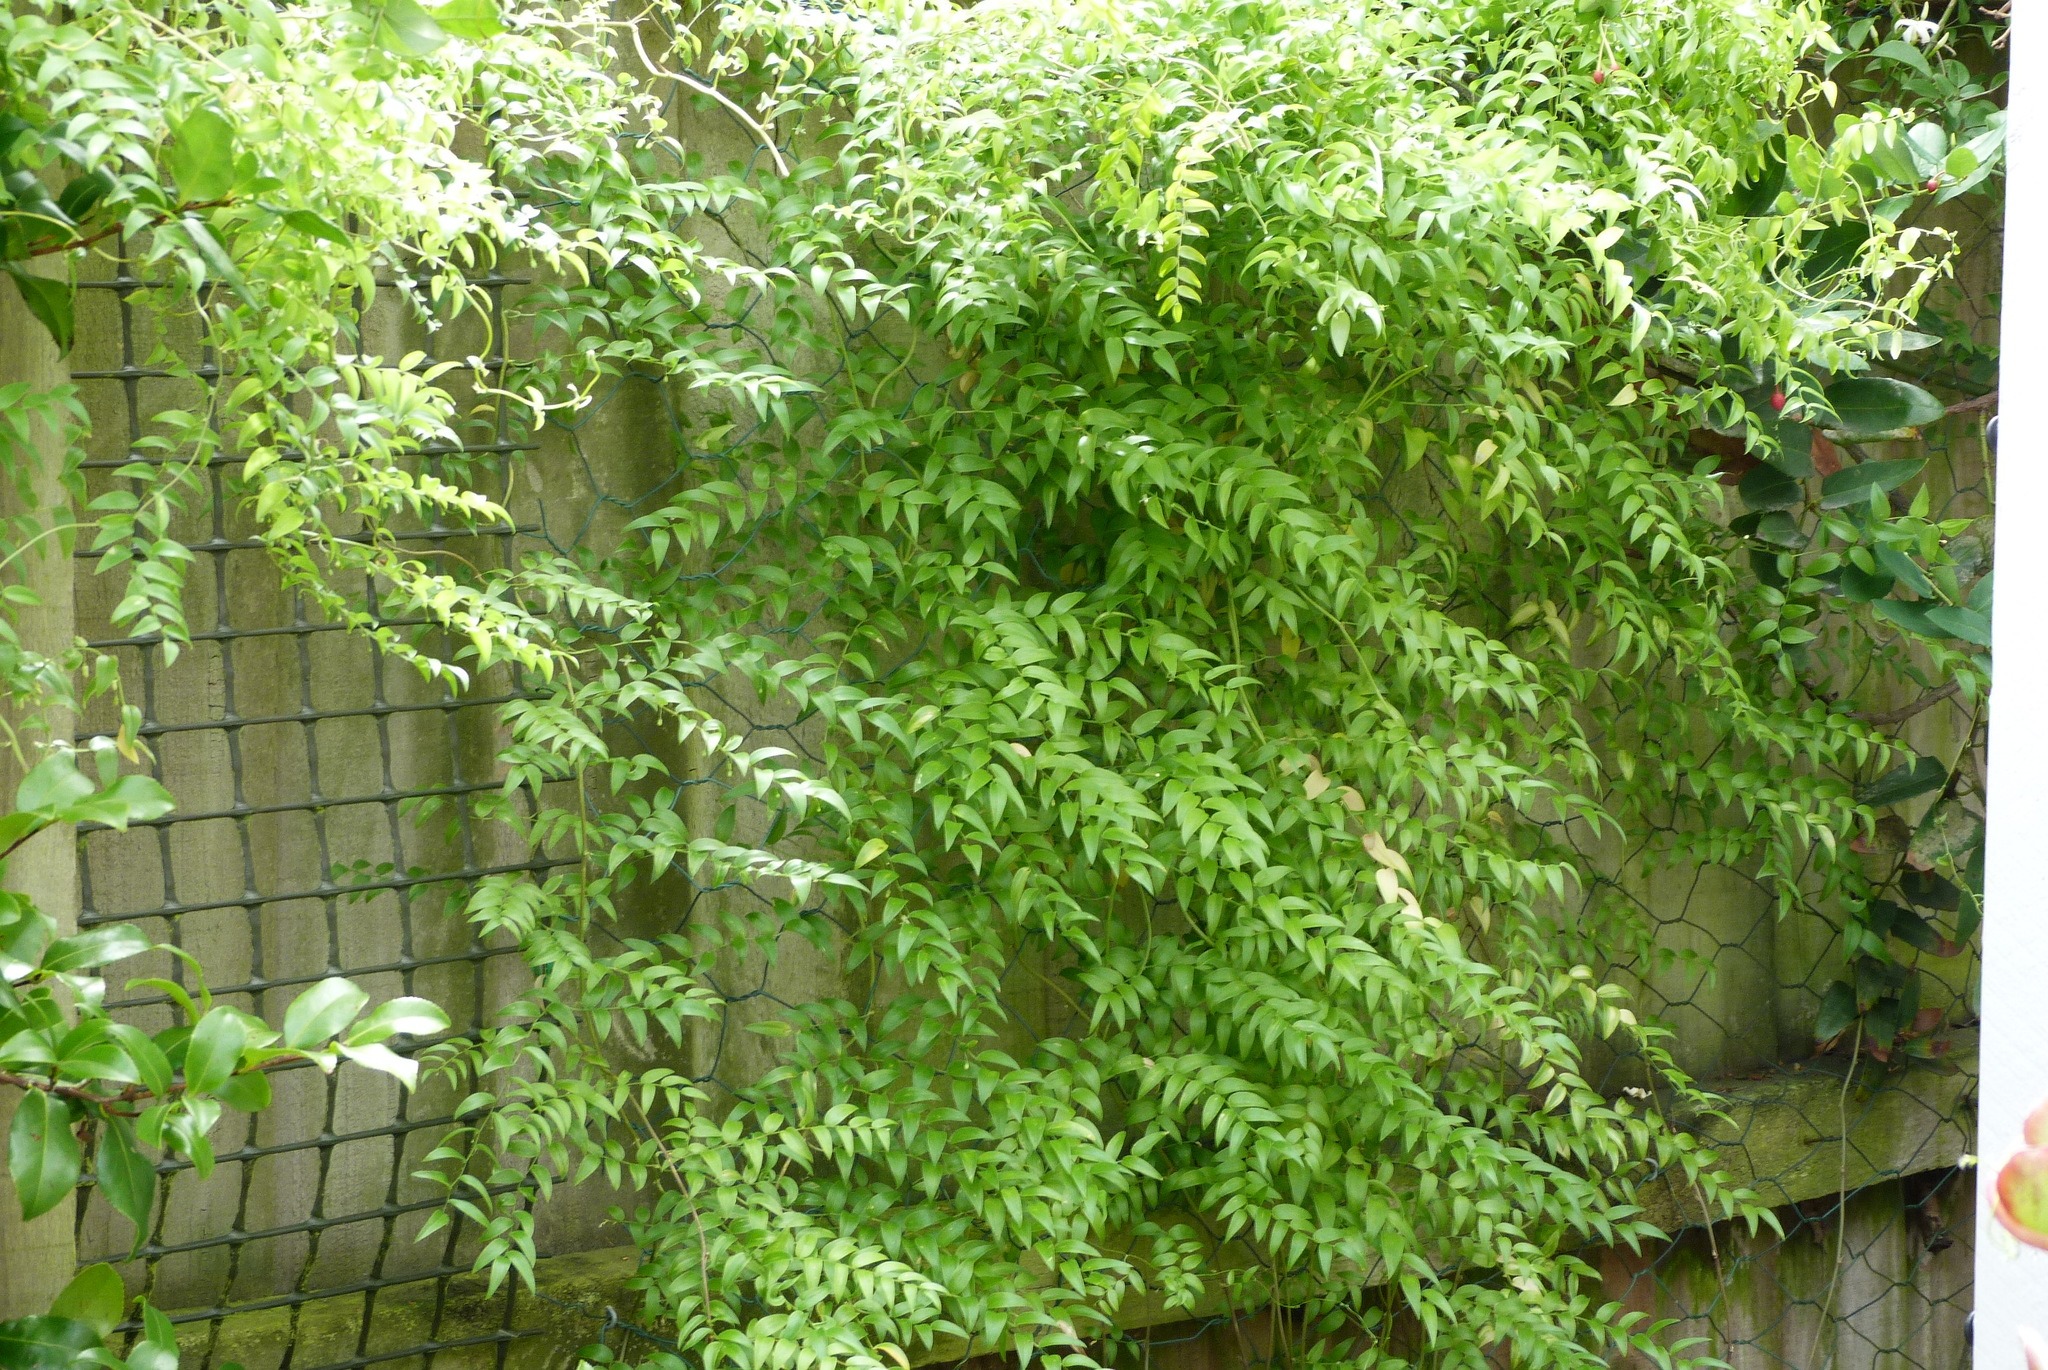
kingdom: Plantae
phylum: Tracheophyta
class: Liliopsida
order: Asparagales
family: Asparagaceae
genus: Asparagus
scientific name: Asparagus asparagoides
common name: African asparagus fern
